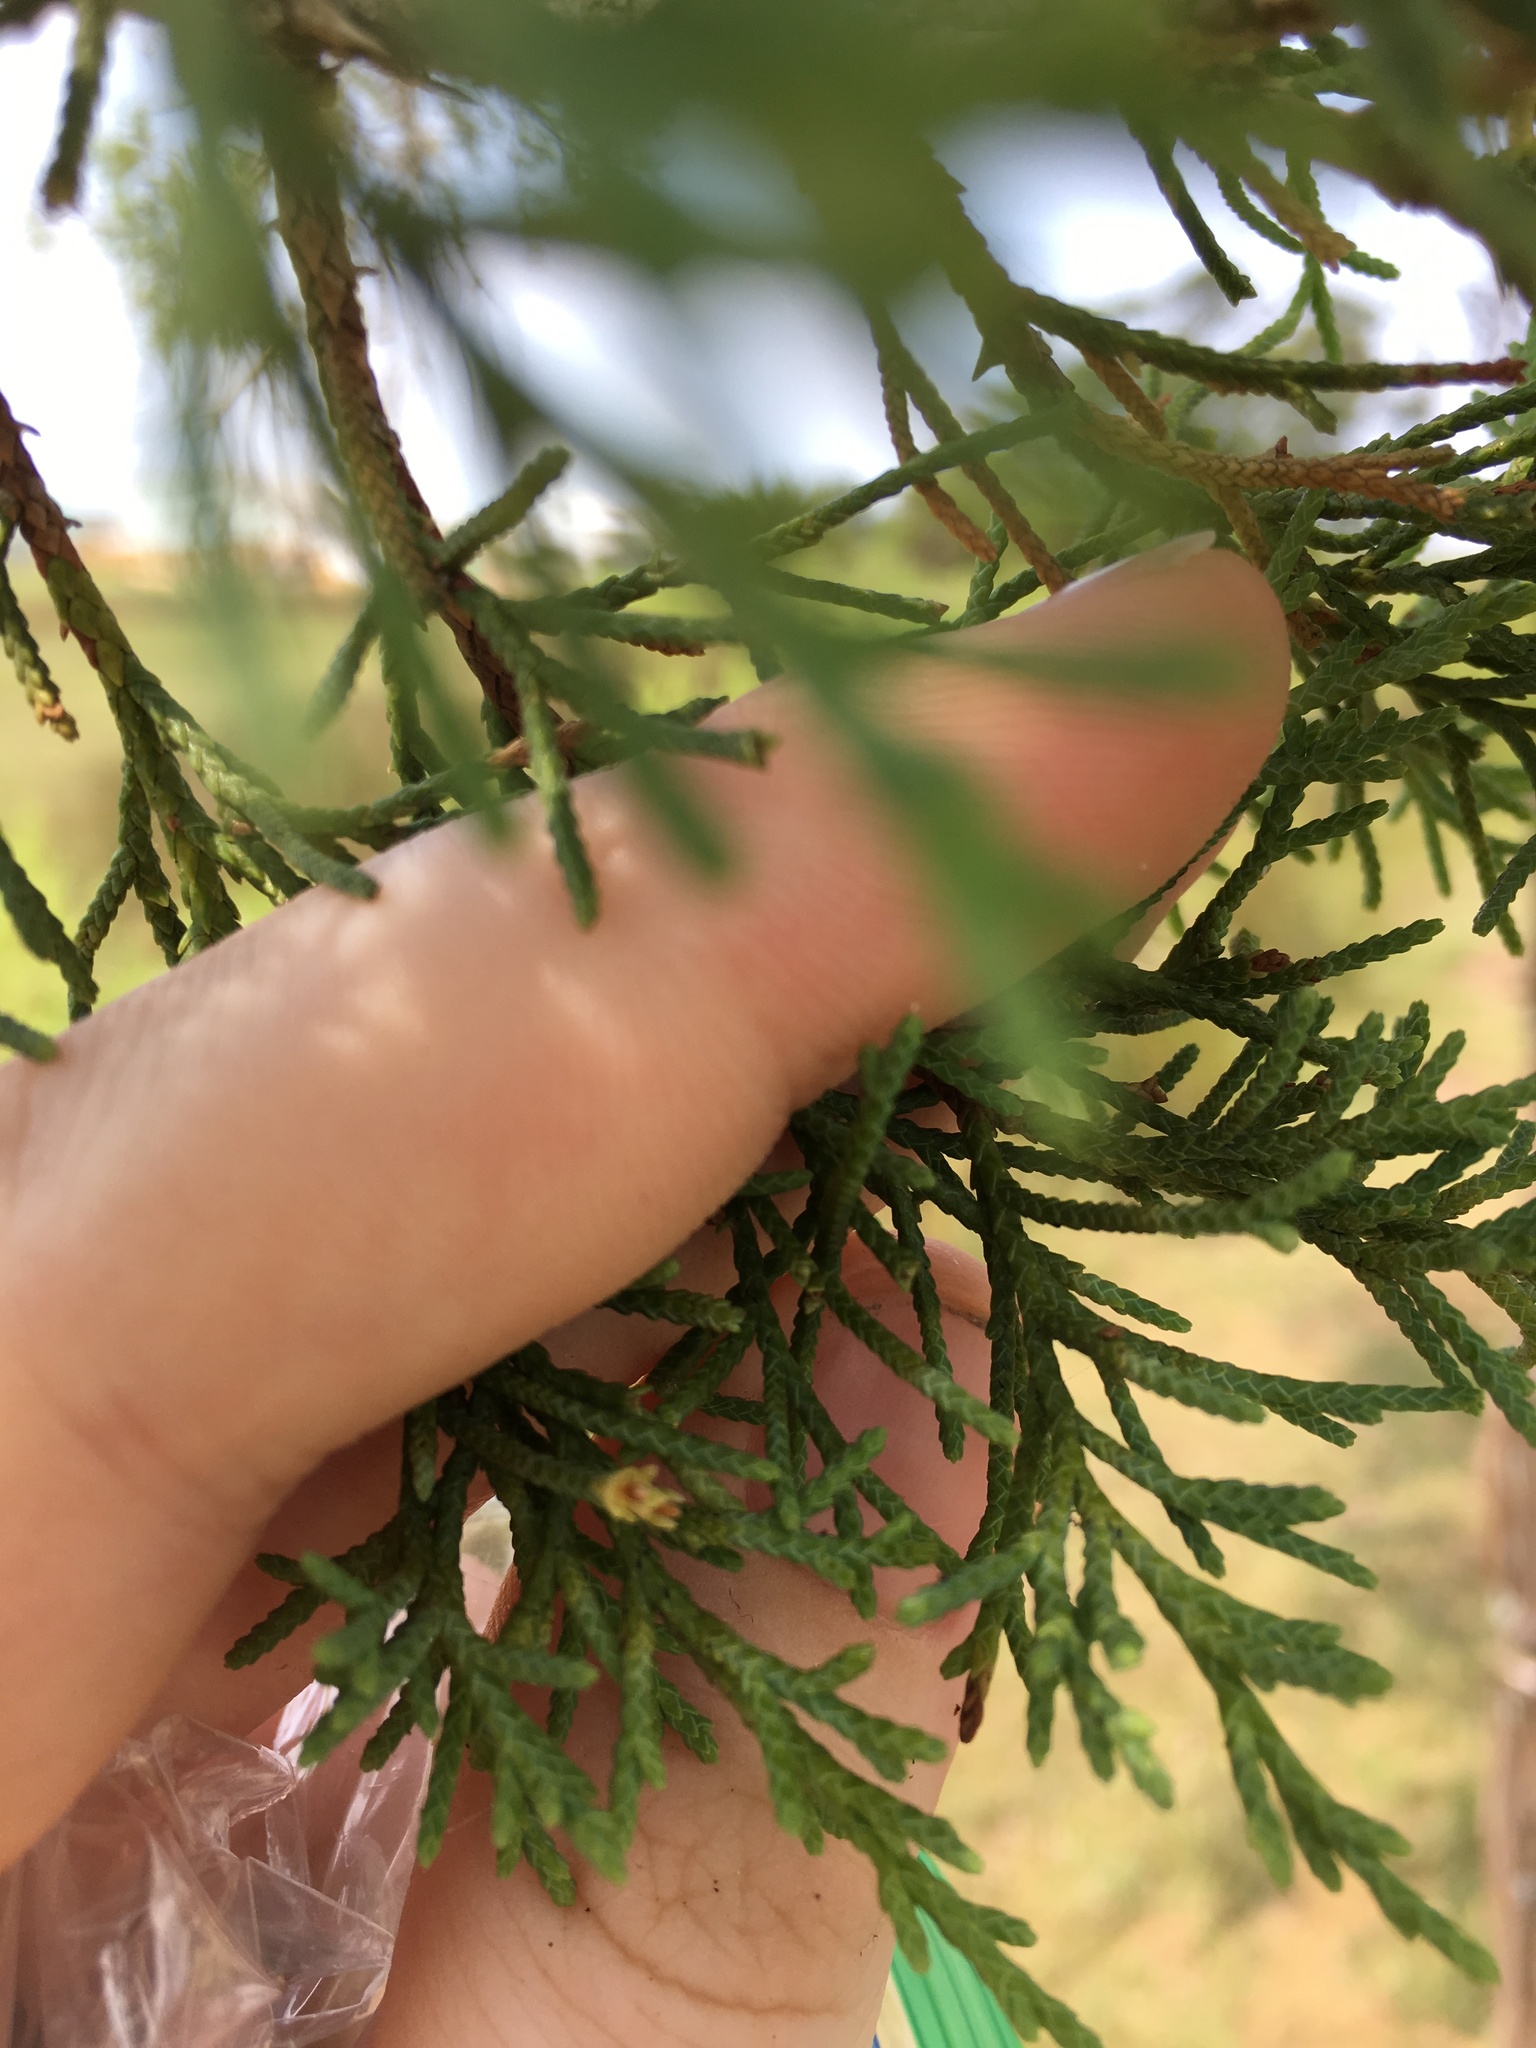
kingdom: Plantae
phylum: Tracheophyta
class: Pinopsida
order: Pinales
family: Cupressaceae
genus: Juniperus
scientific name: Juniperus virginiana
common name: Red juniper
